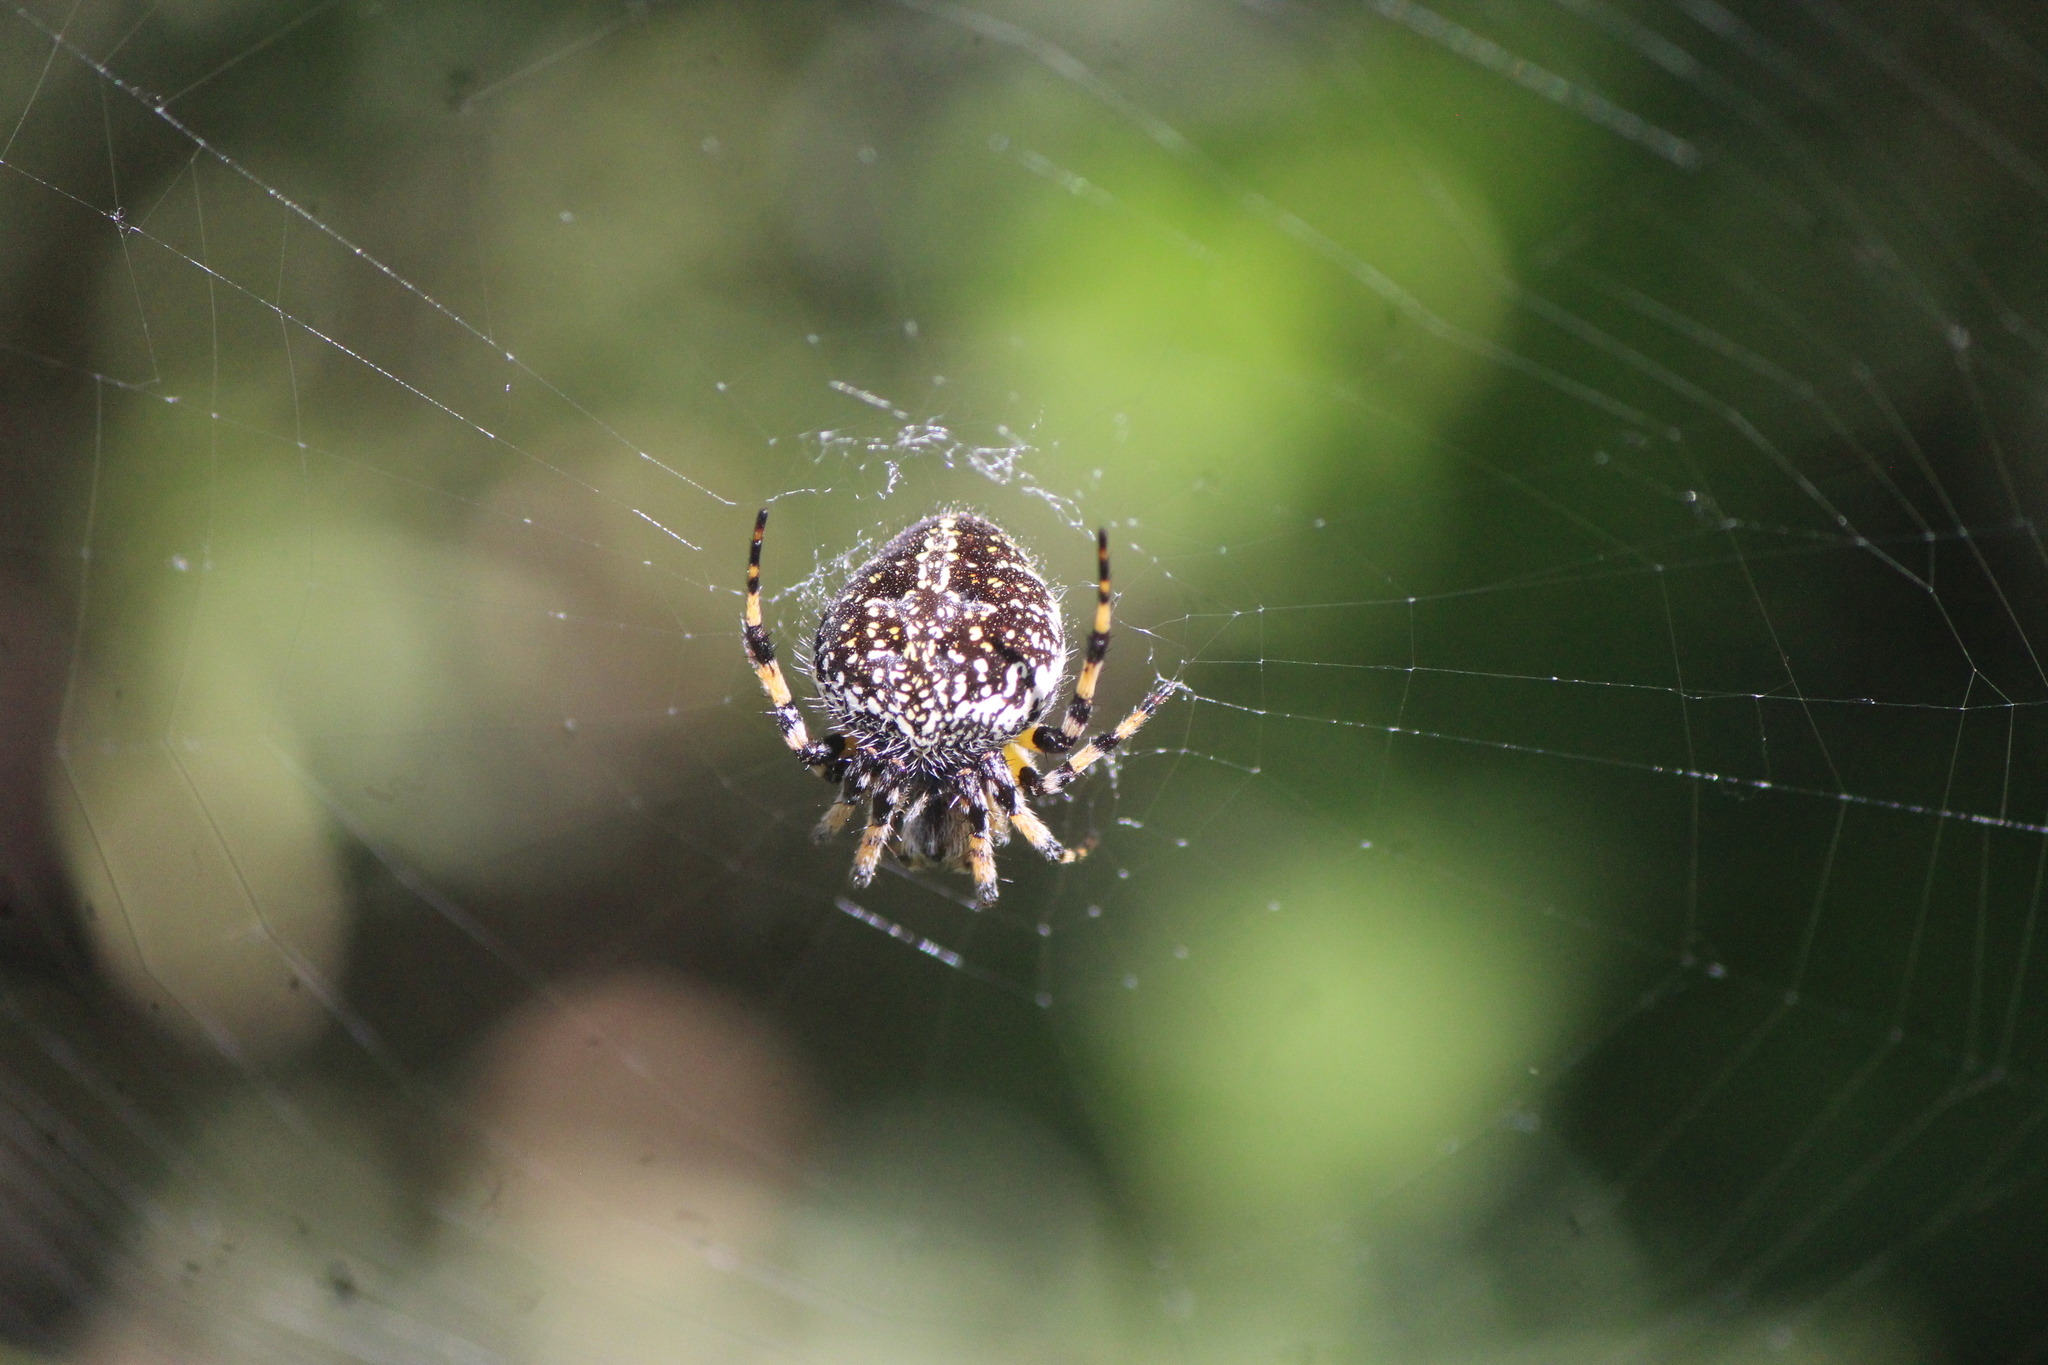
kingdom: Animalia
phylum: Arthropoda
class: Arachnida
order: Araneae
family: Araneidae
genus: Neoscona
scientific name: Neoscona orizabensis
